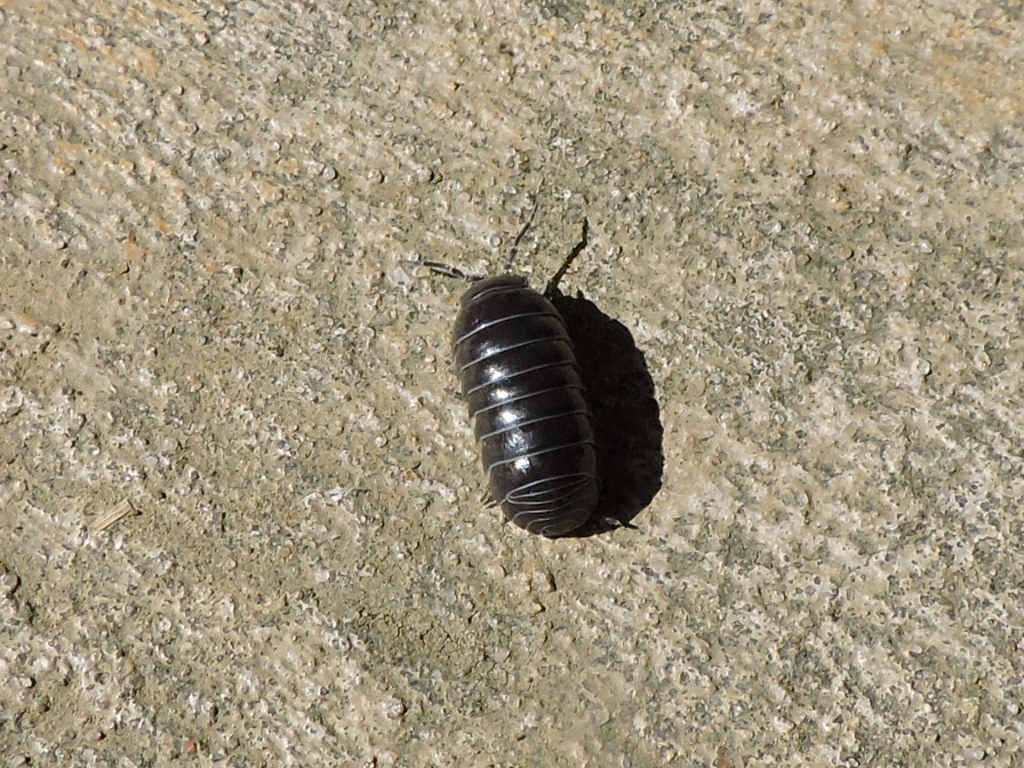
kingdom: Animalia
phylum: Arthropoda
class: Malacostraca
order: Isopoda
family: Armadillidiidae
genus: Armadillidium
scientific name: Armadillidium vulgare
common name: Common pill woodlouse
